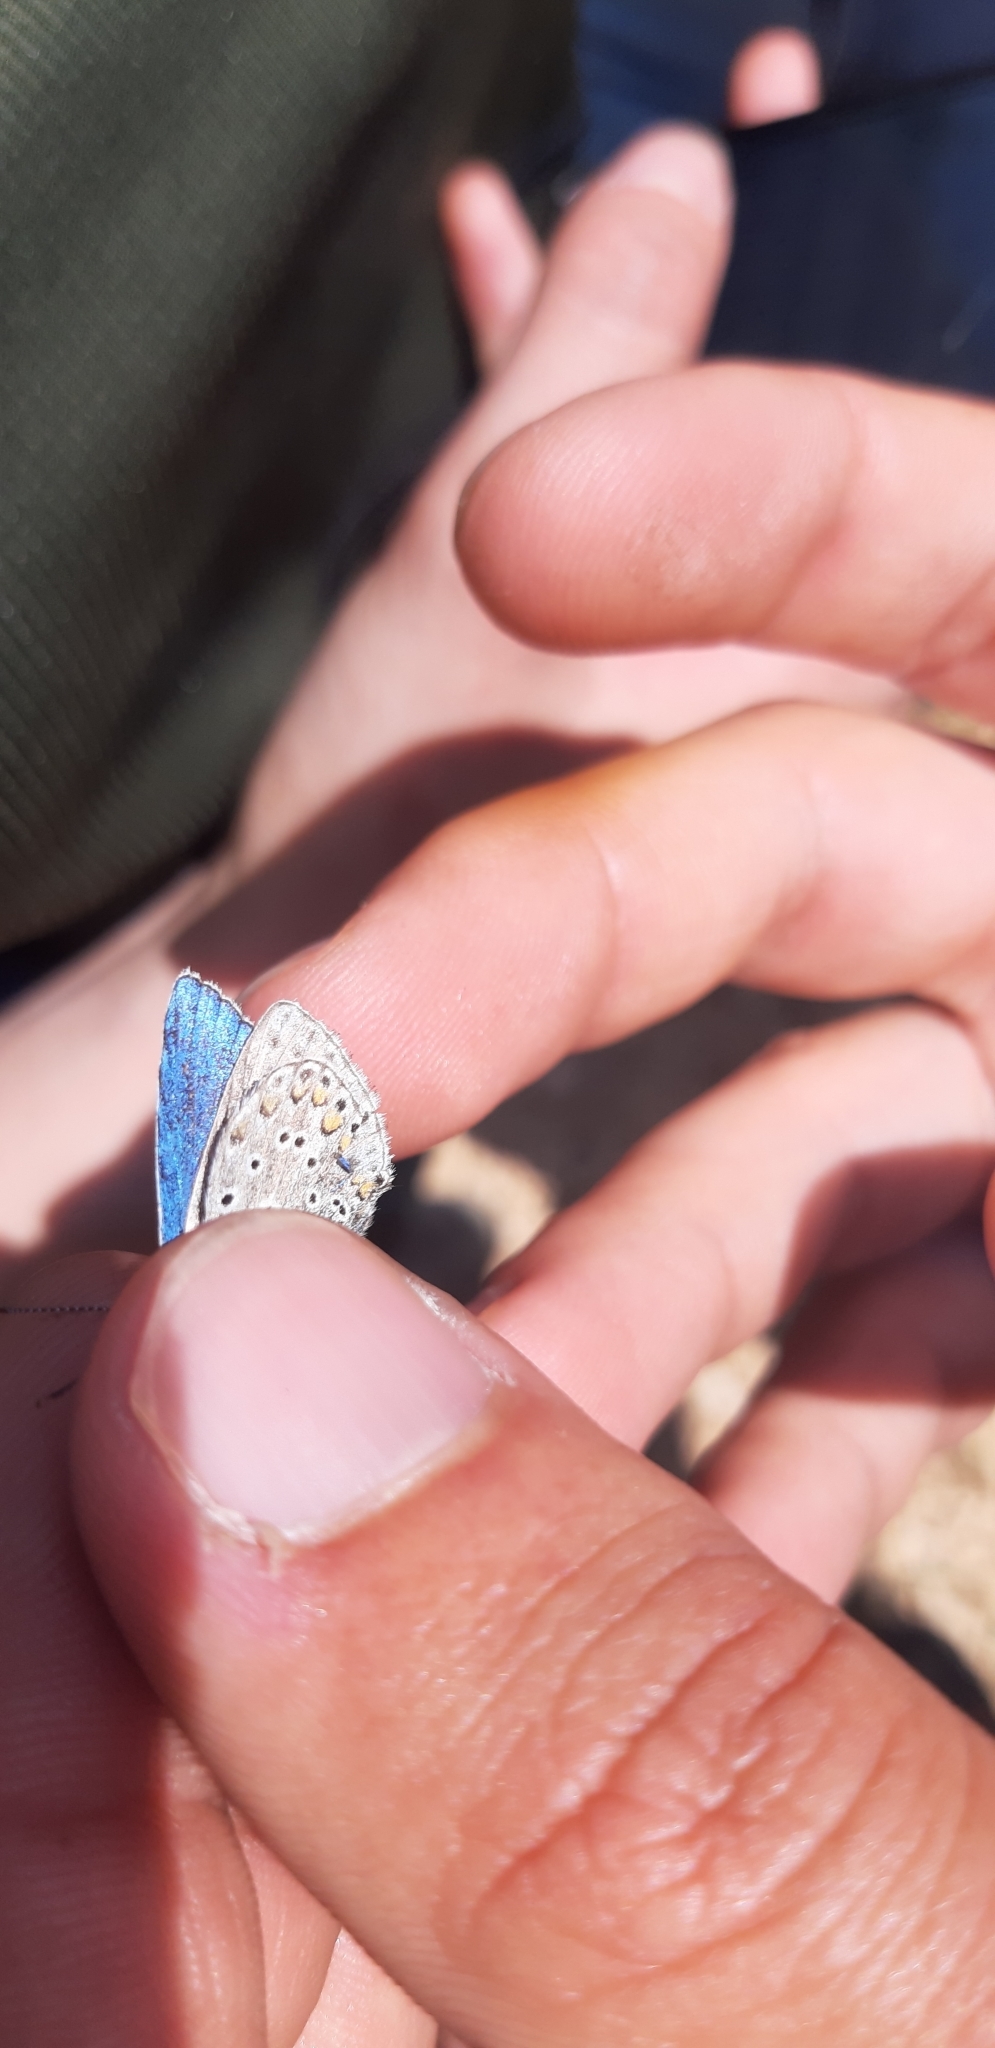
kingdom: Animalia
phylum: Arthropoda
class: Insecta
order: Lepidoptera
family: Lycaenidae
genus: Lysandra
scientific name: Lysandra bellargus
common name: Adonis blue
